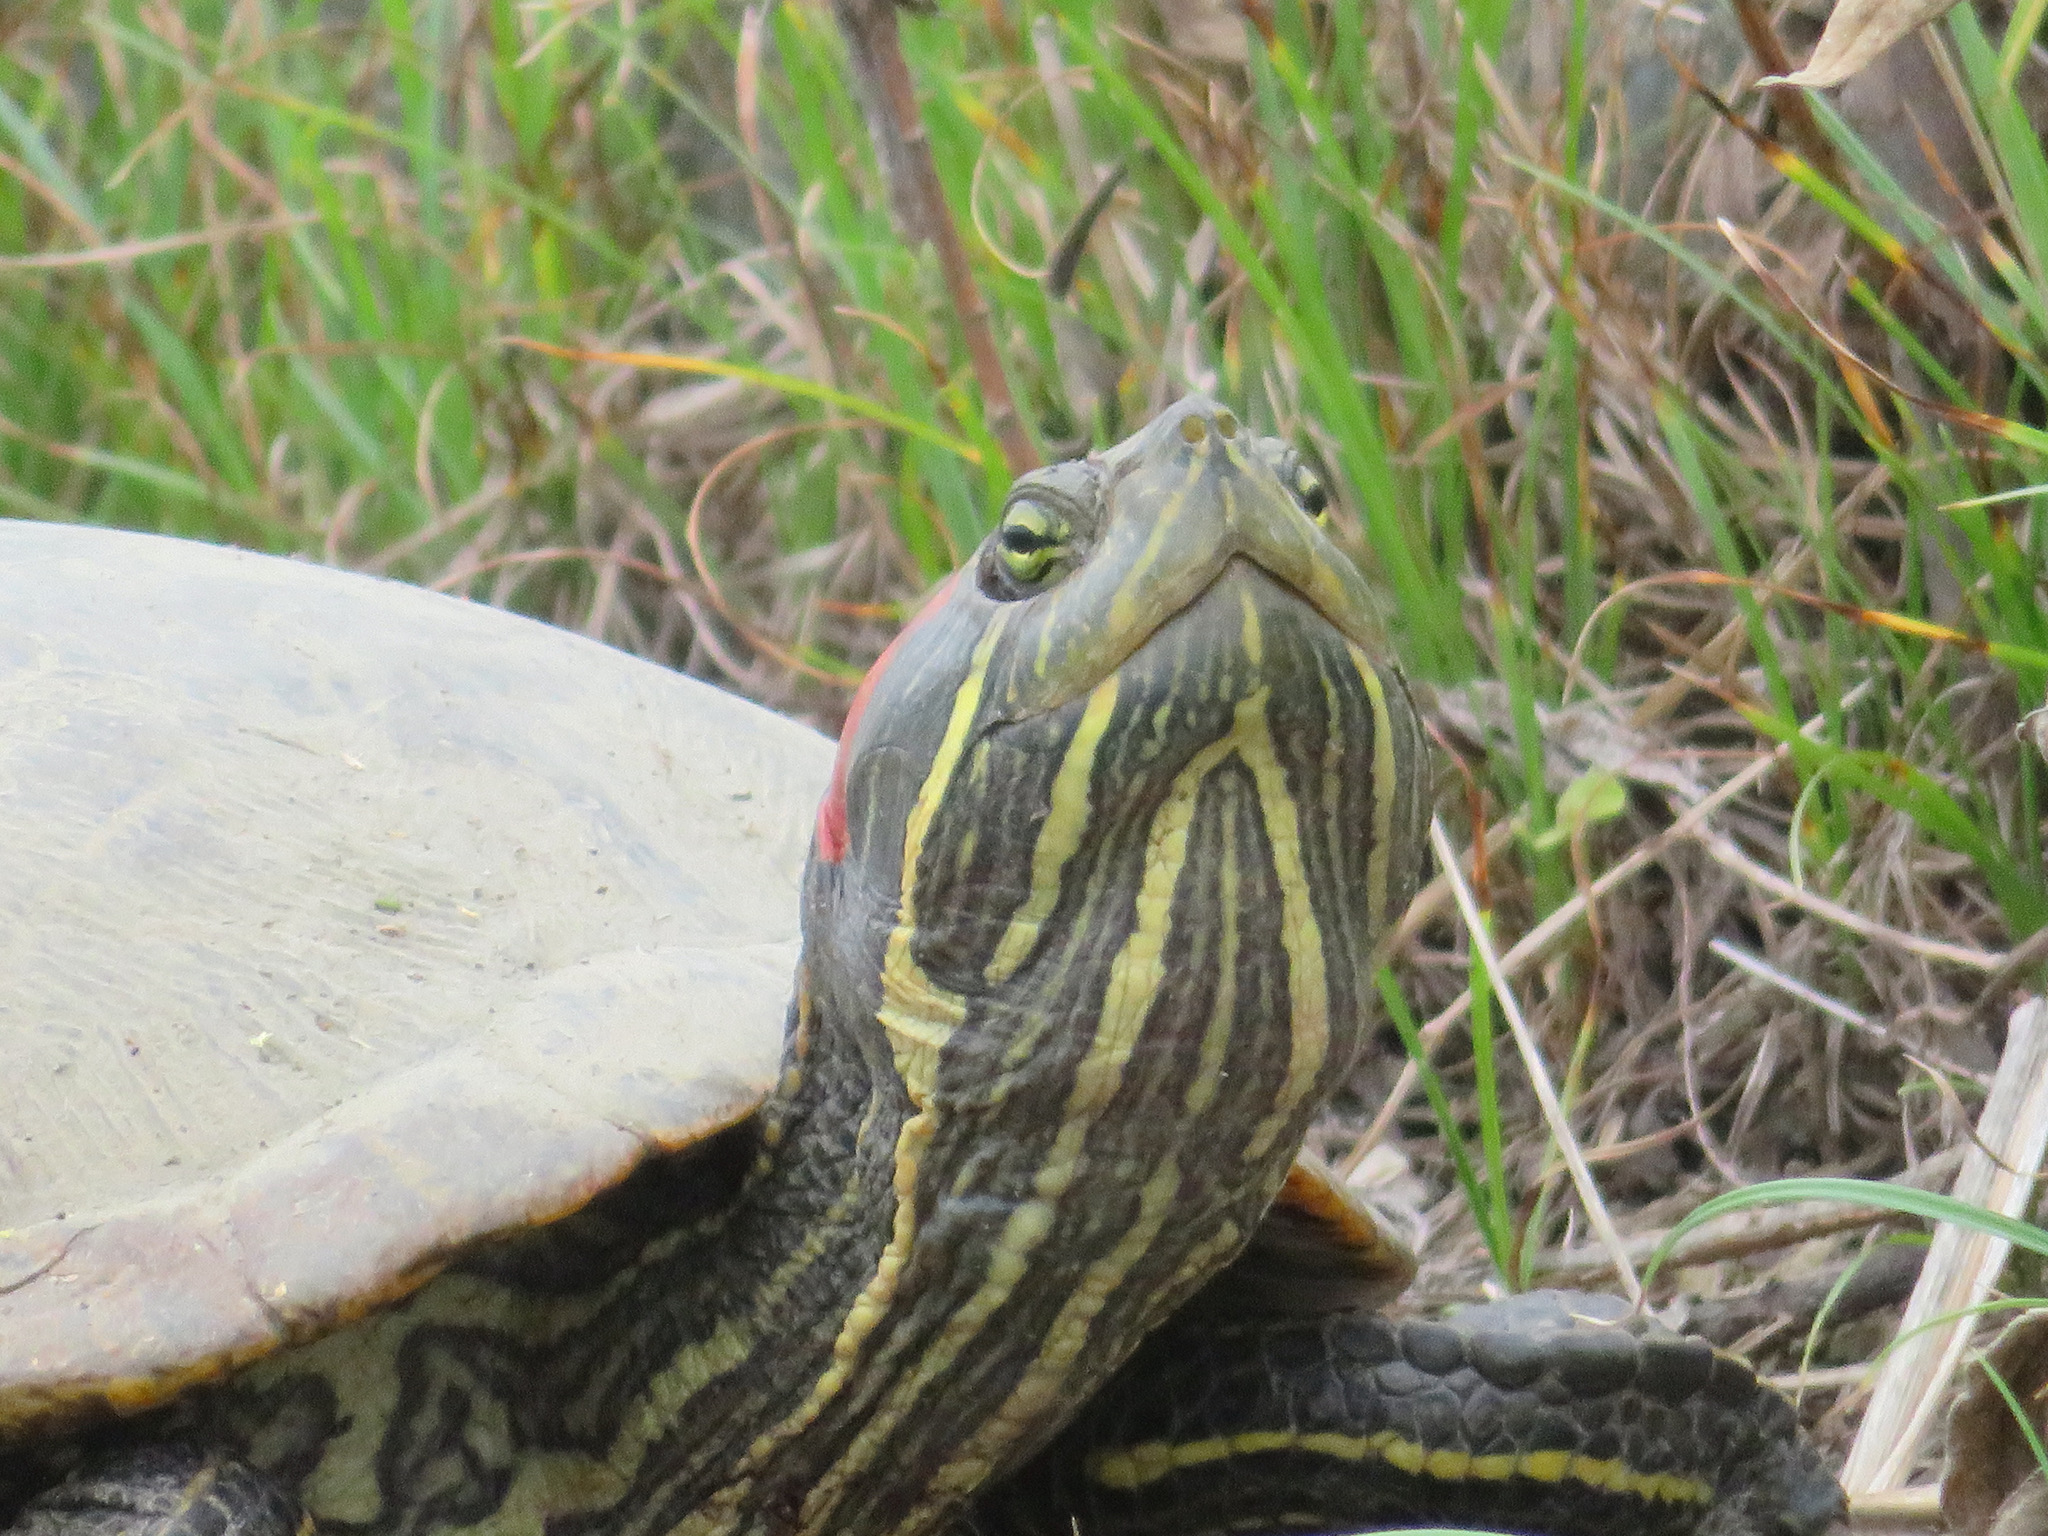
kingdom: Animalia
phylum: Chordata
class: Testudines
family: Emydidae
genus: Trachemys
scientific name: Trachemys scripta
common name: Slider
